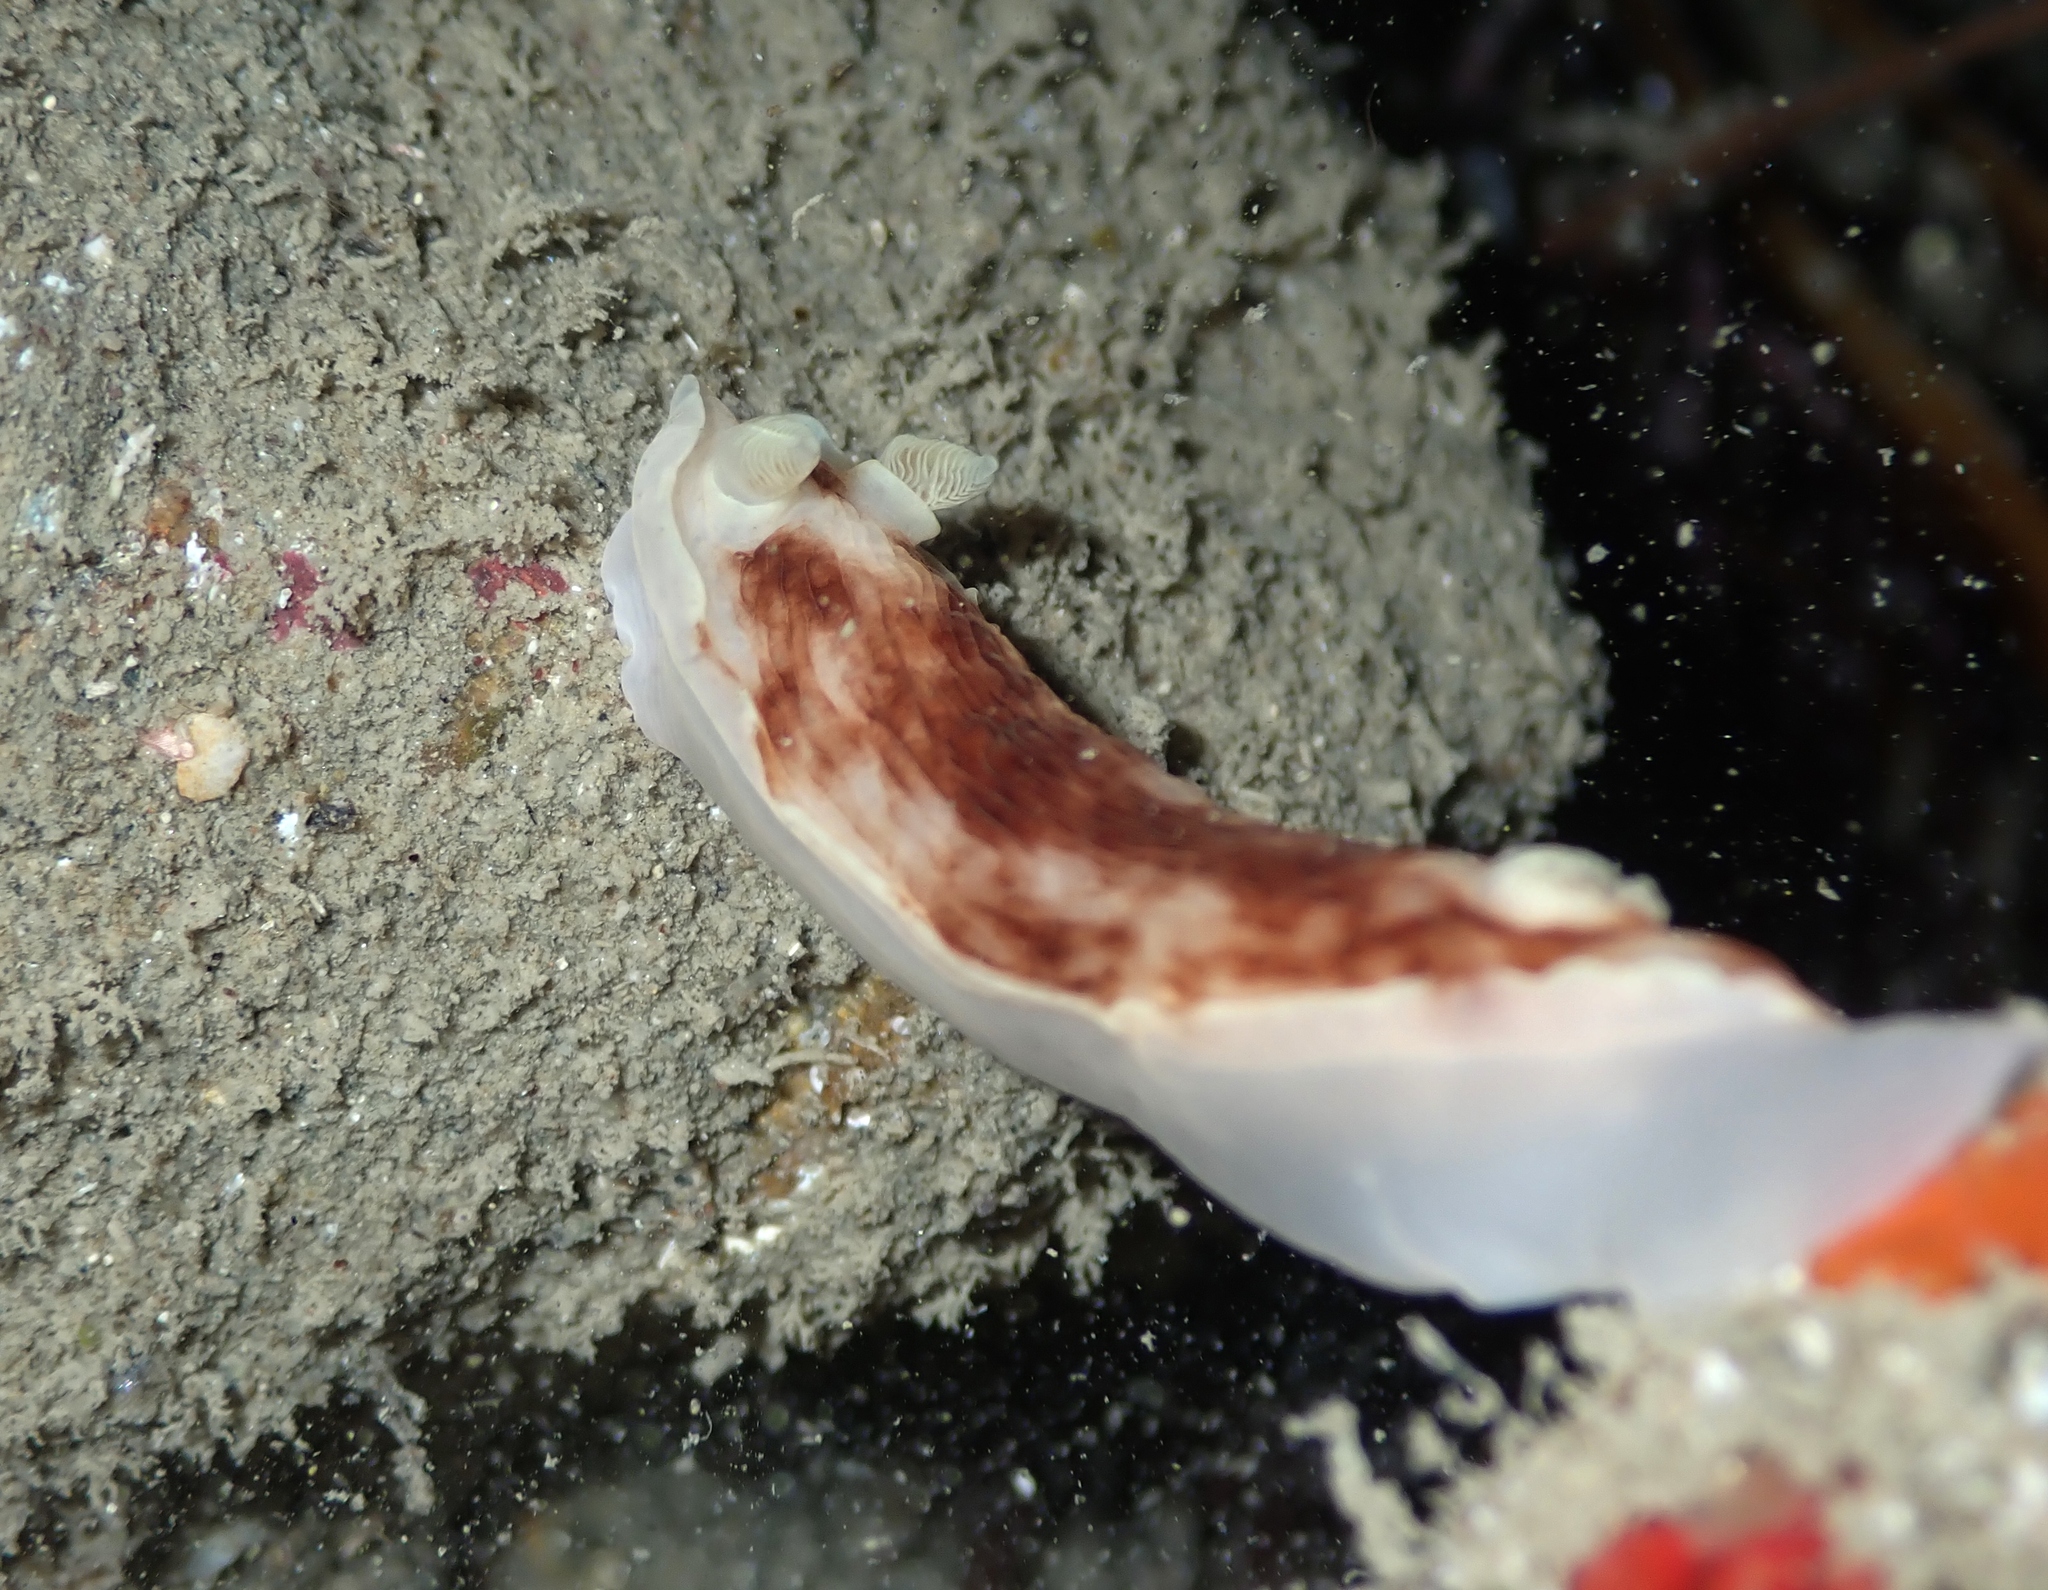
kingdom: Animalia
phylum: Mollusca
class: Gastropoda
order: Nudibranchia
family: Dorididae
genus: Aphelodoris
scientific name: Aphelodoris luctuosa
